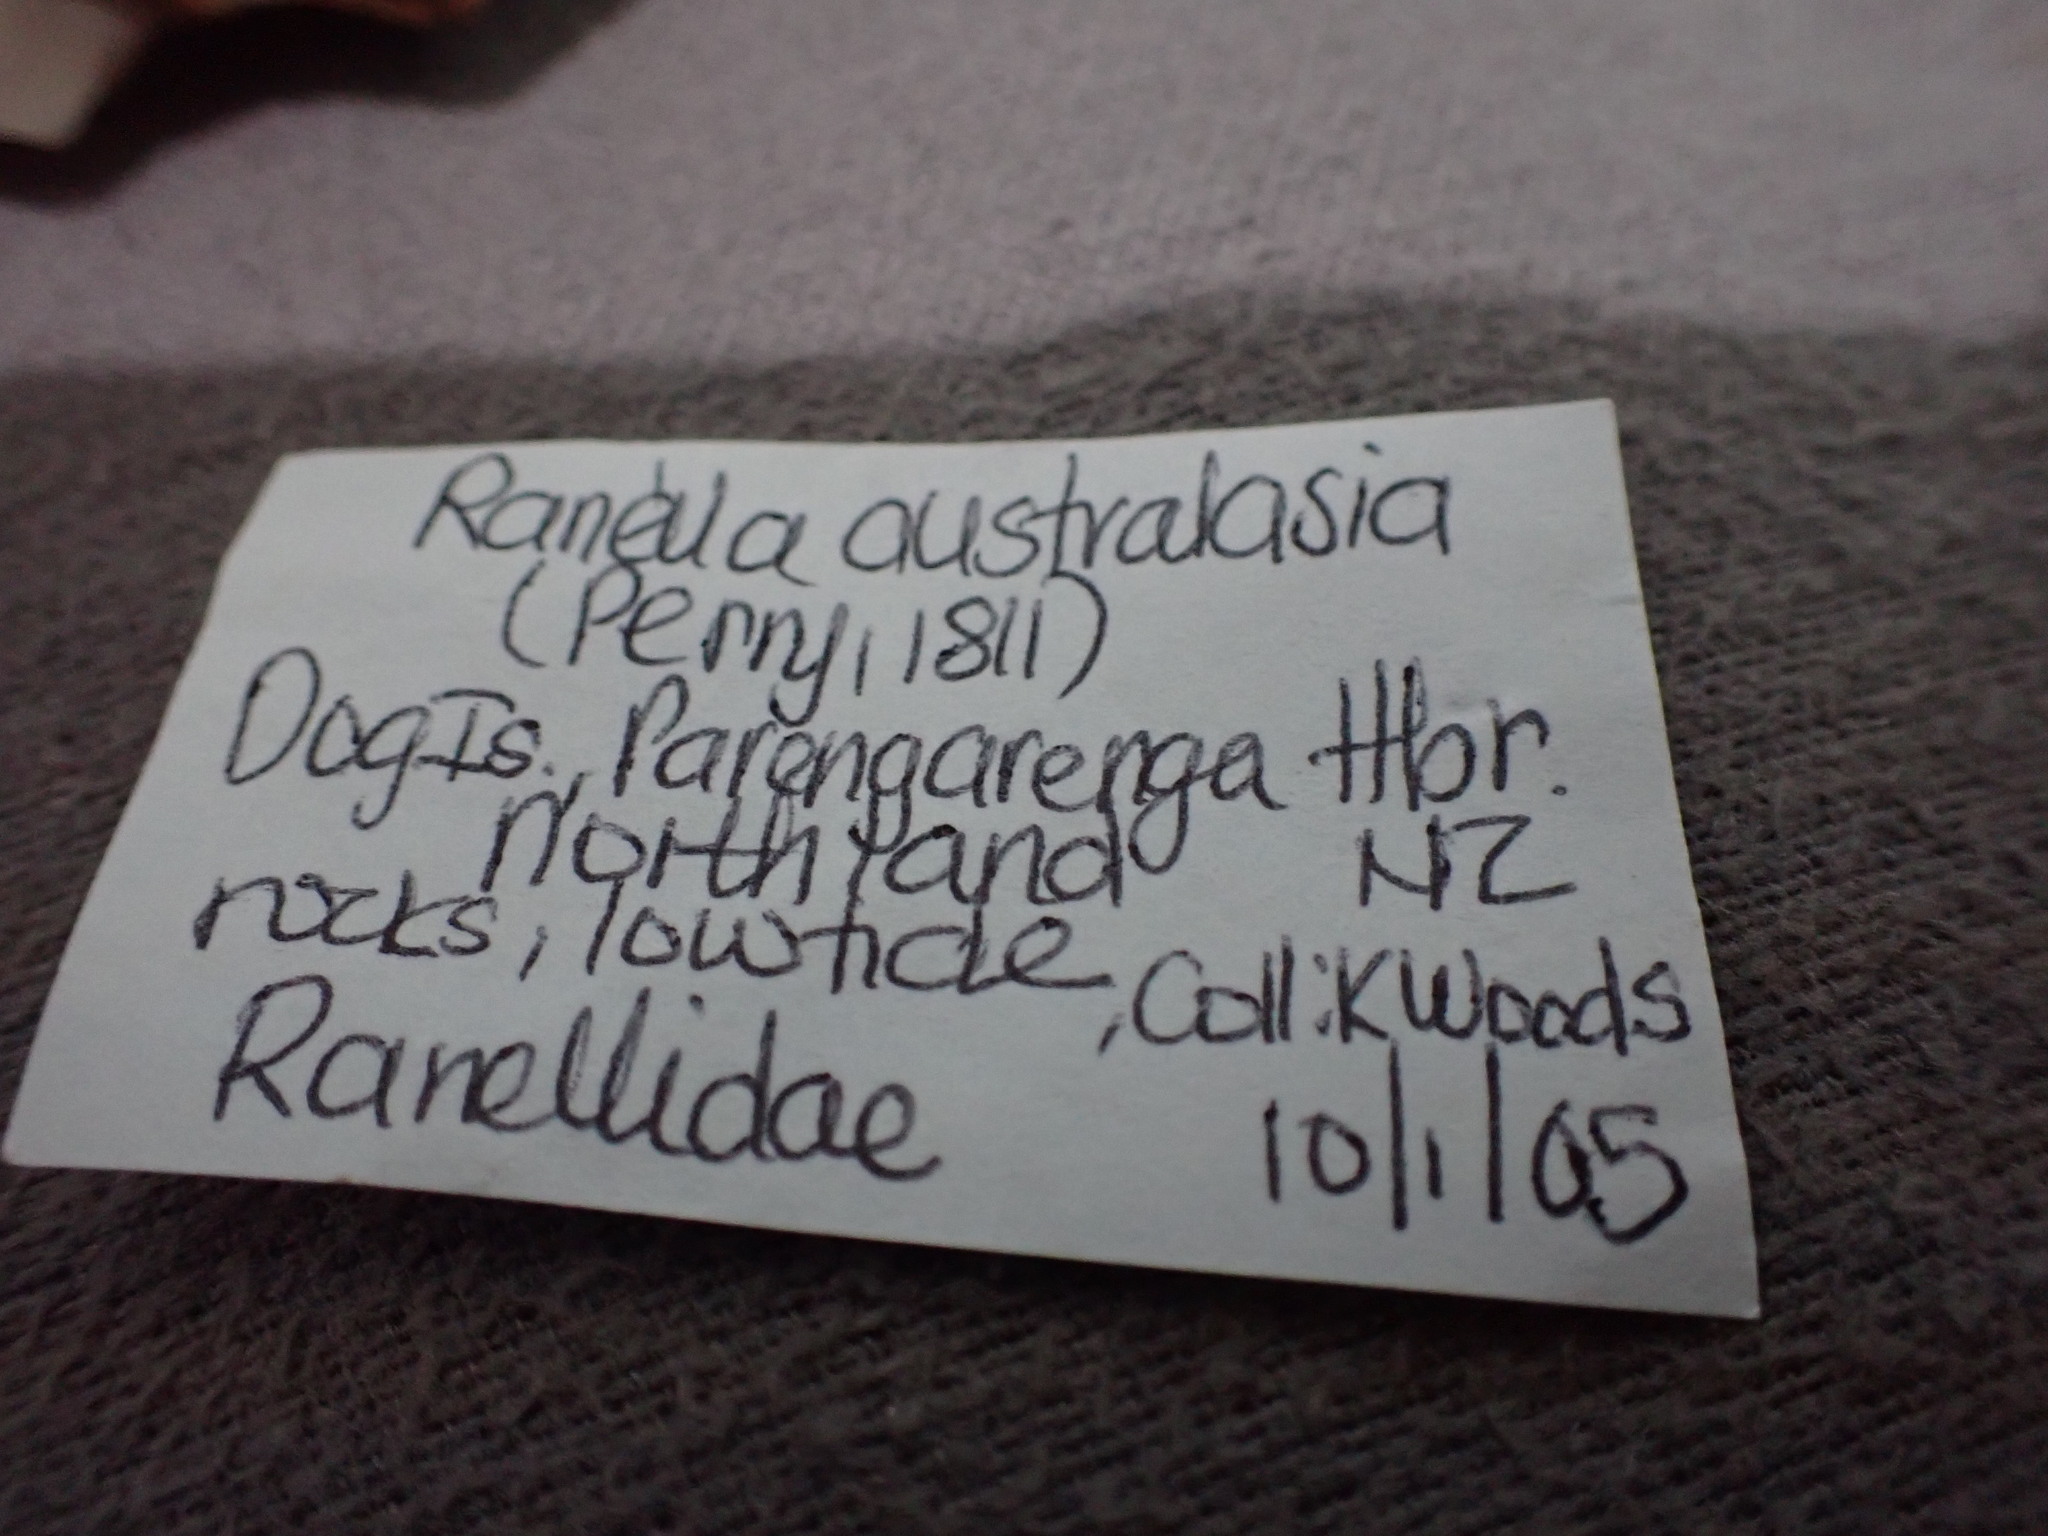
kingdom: Animalia
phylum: Mollusca
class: Gastropoda
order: Littorinimorpha
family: Ranellidae
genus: Ranella
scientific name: Ranella australasia
